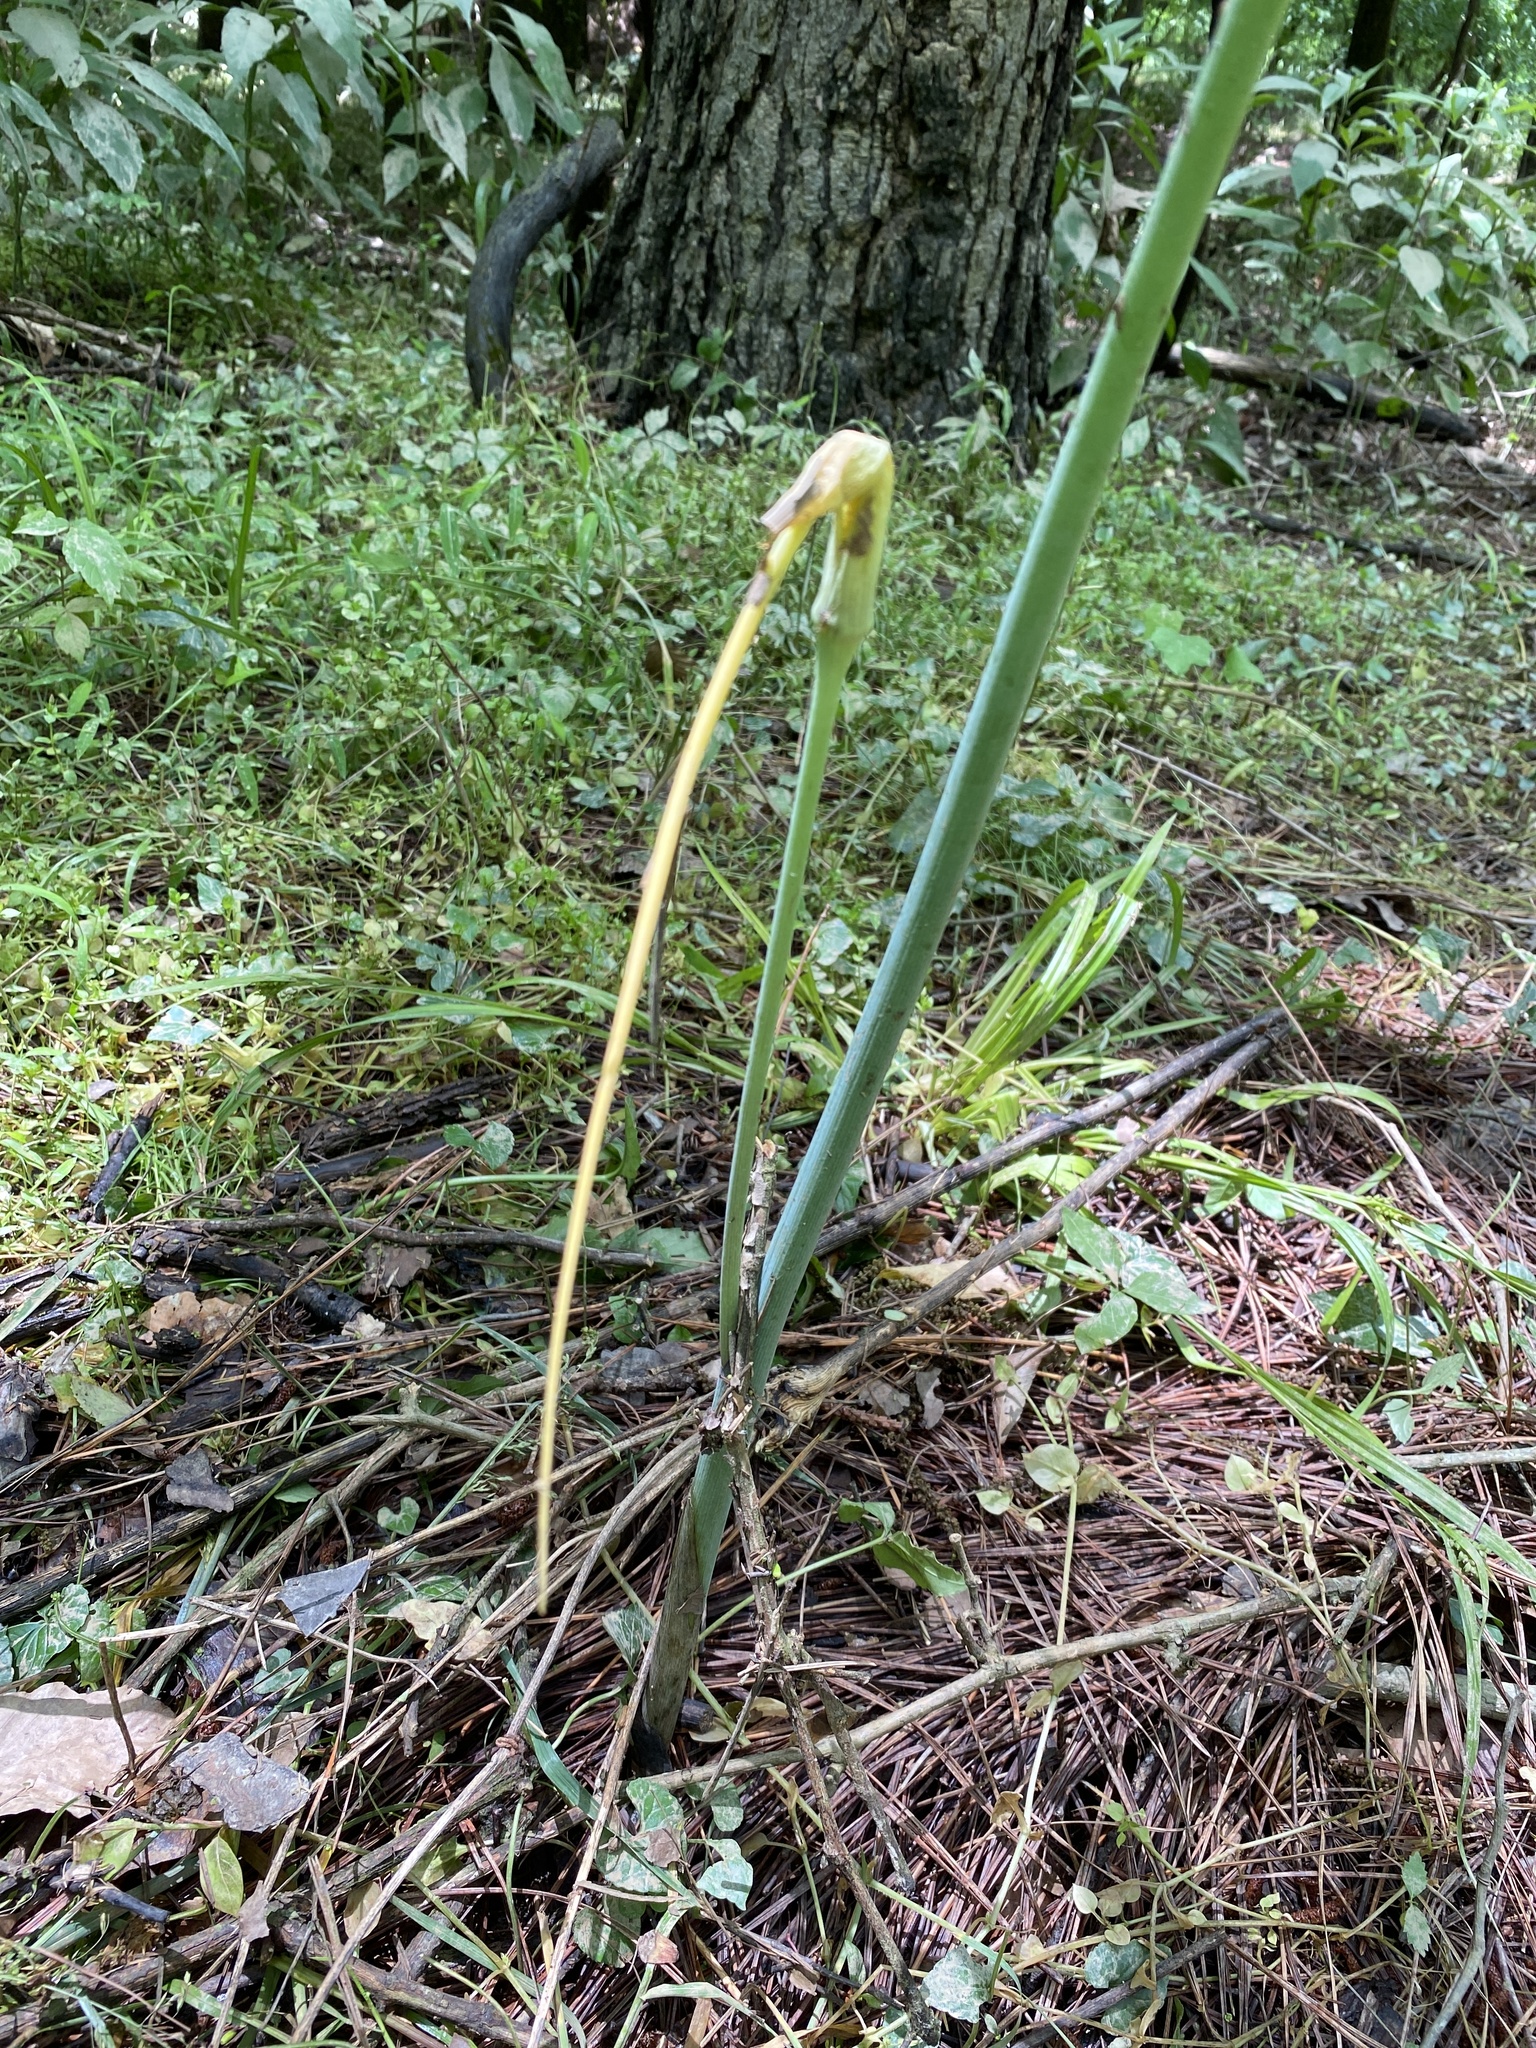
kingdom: Plantae
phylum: Tracheophyta
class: Liliopsida
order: Alismatales
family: Araceae
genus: Arisaema
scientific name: Arisaema dracontium
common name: Dragon-arum
